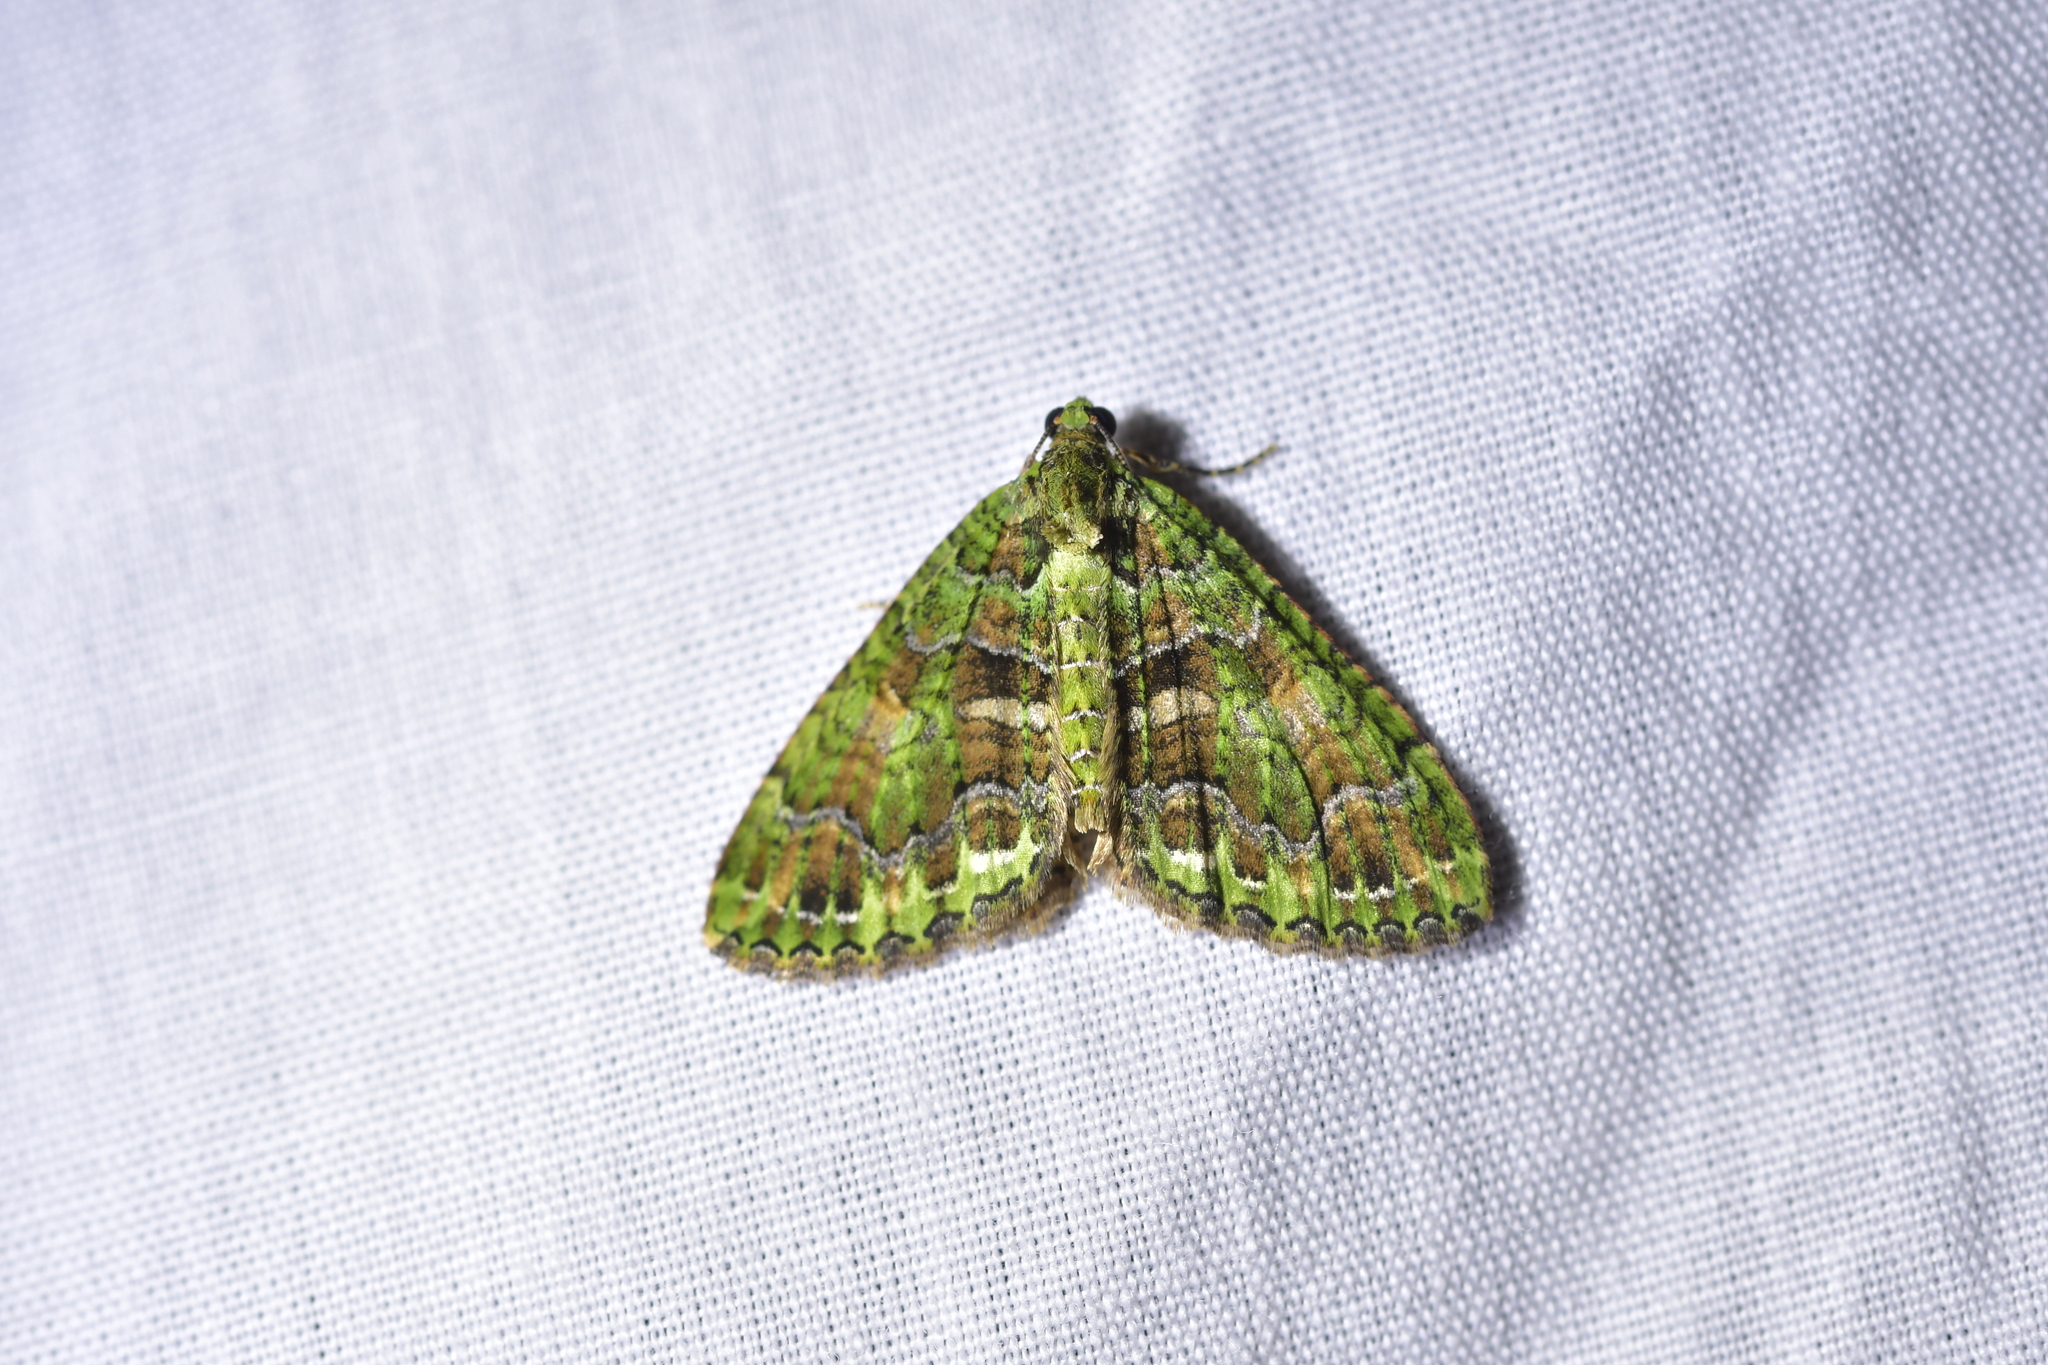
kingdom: Animalia
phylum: Arthropoda
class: Insecta
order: Lepidoptera
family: Geometridae
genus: Austrocidaria
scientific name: Austrocidaria similata
